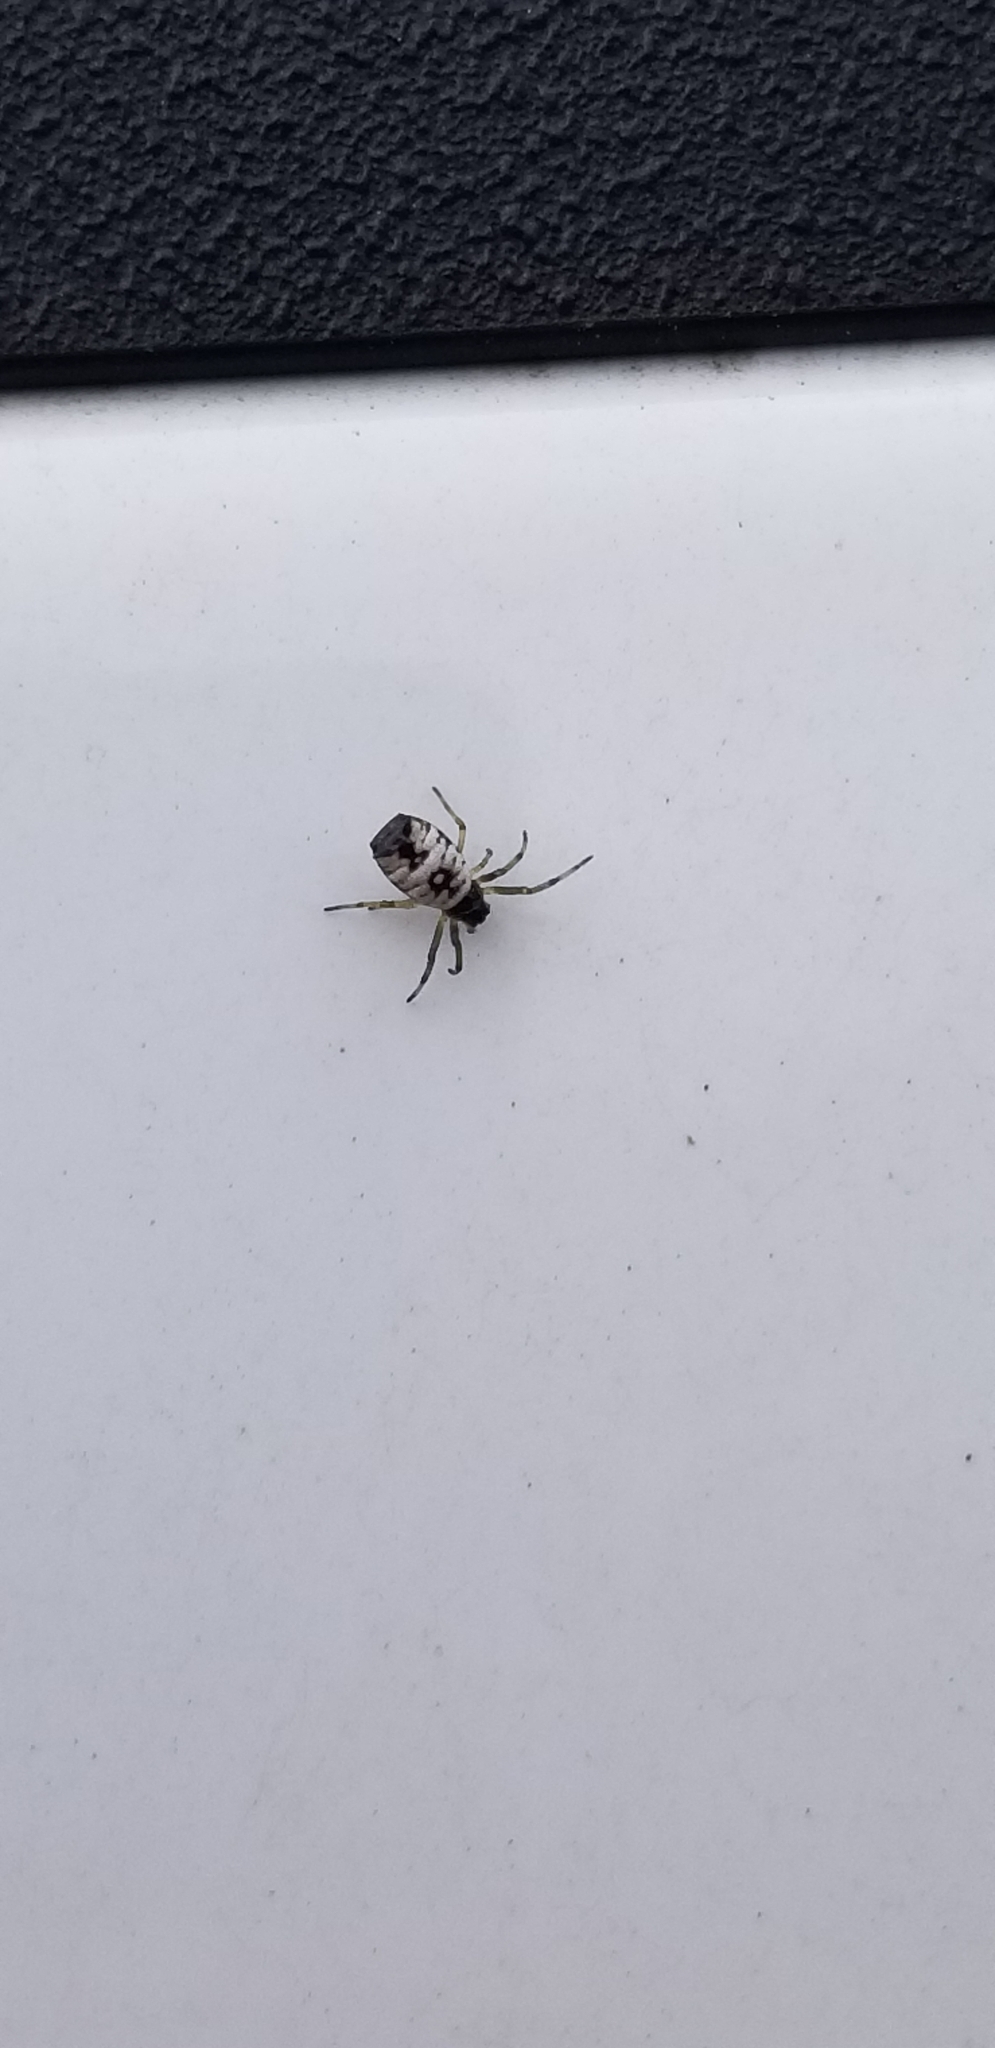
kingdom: Animalia
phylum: Arthropoda
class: Arachnida
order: Araneae
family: Araneidae
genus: Micrathena
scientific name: Micrathena mitrata
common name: Orb weavers
